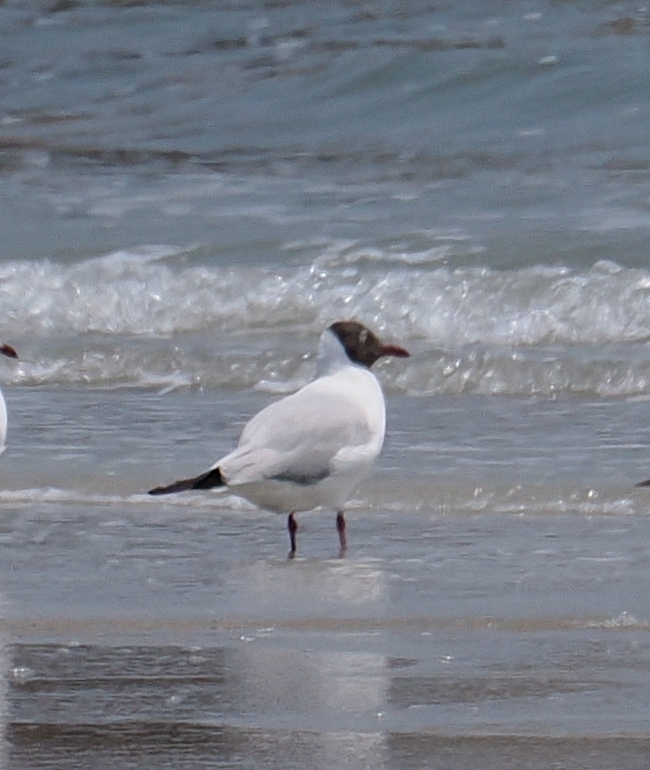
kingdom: Animalia
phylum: Chordata
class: Aves
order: Charadriiformes
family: Laridae
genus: Chroicocephalus
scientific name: Chroicocephalus brunnicephalus
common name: Brown-headed gull
